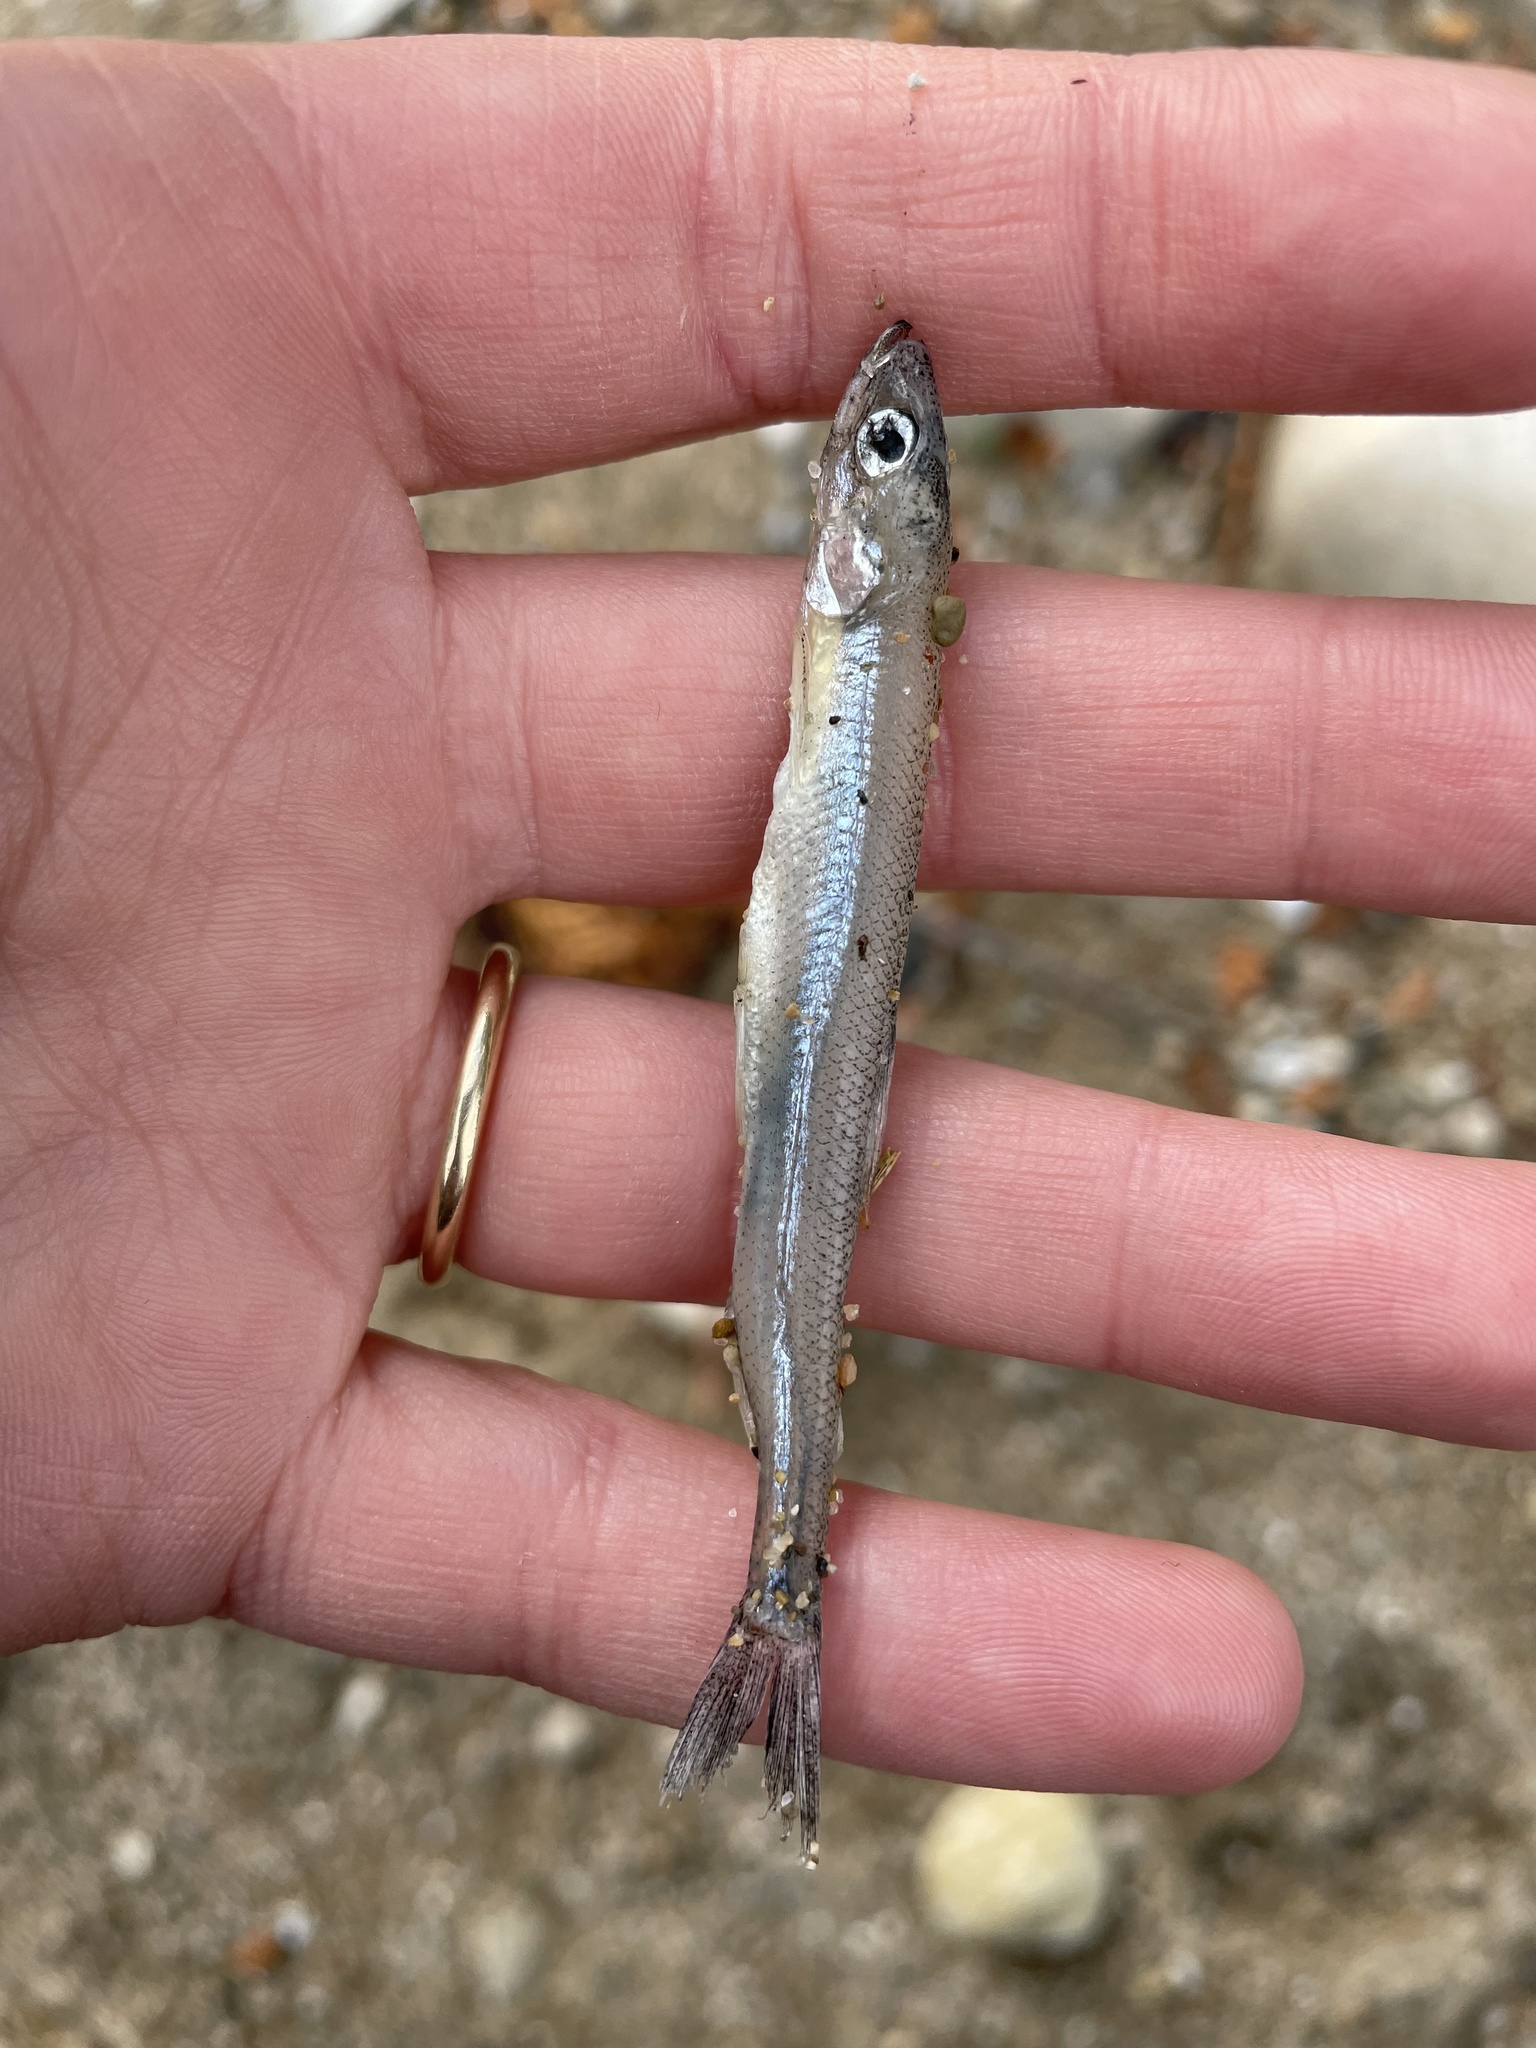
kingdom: Animalia
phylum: Chordata
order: Osmeriformes
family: Osmeridae
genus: Osmerus
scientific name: Osmerus mordax
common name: Rainbow smelt
